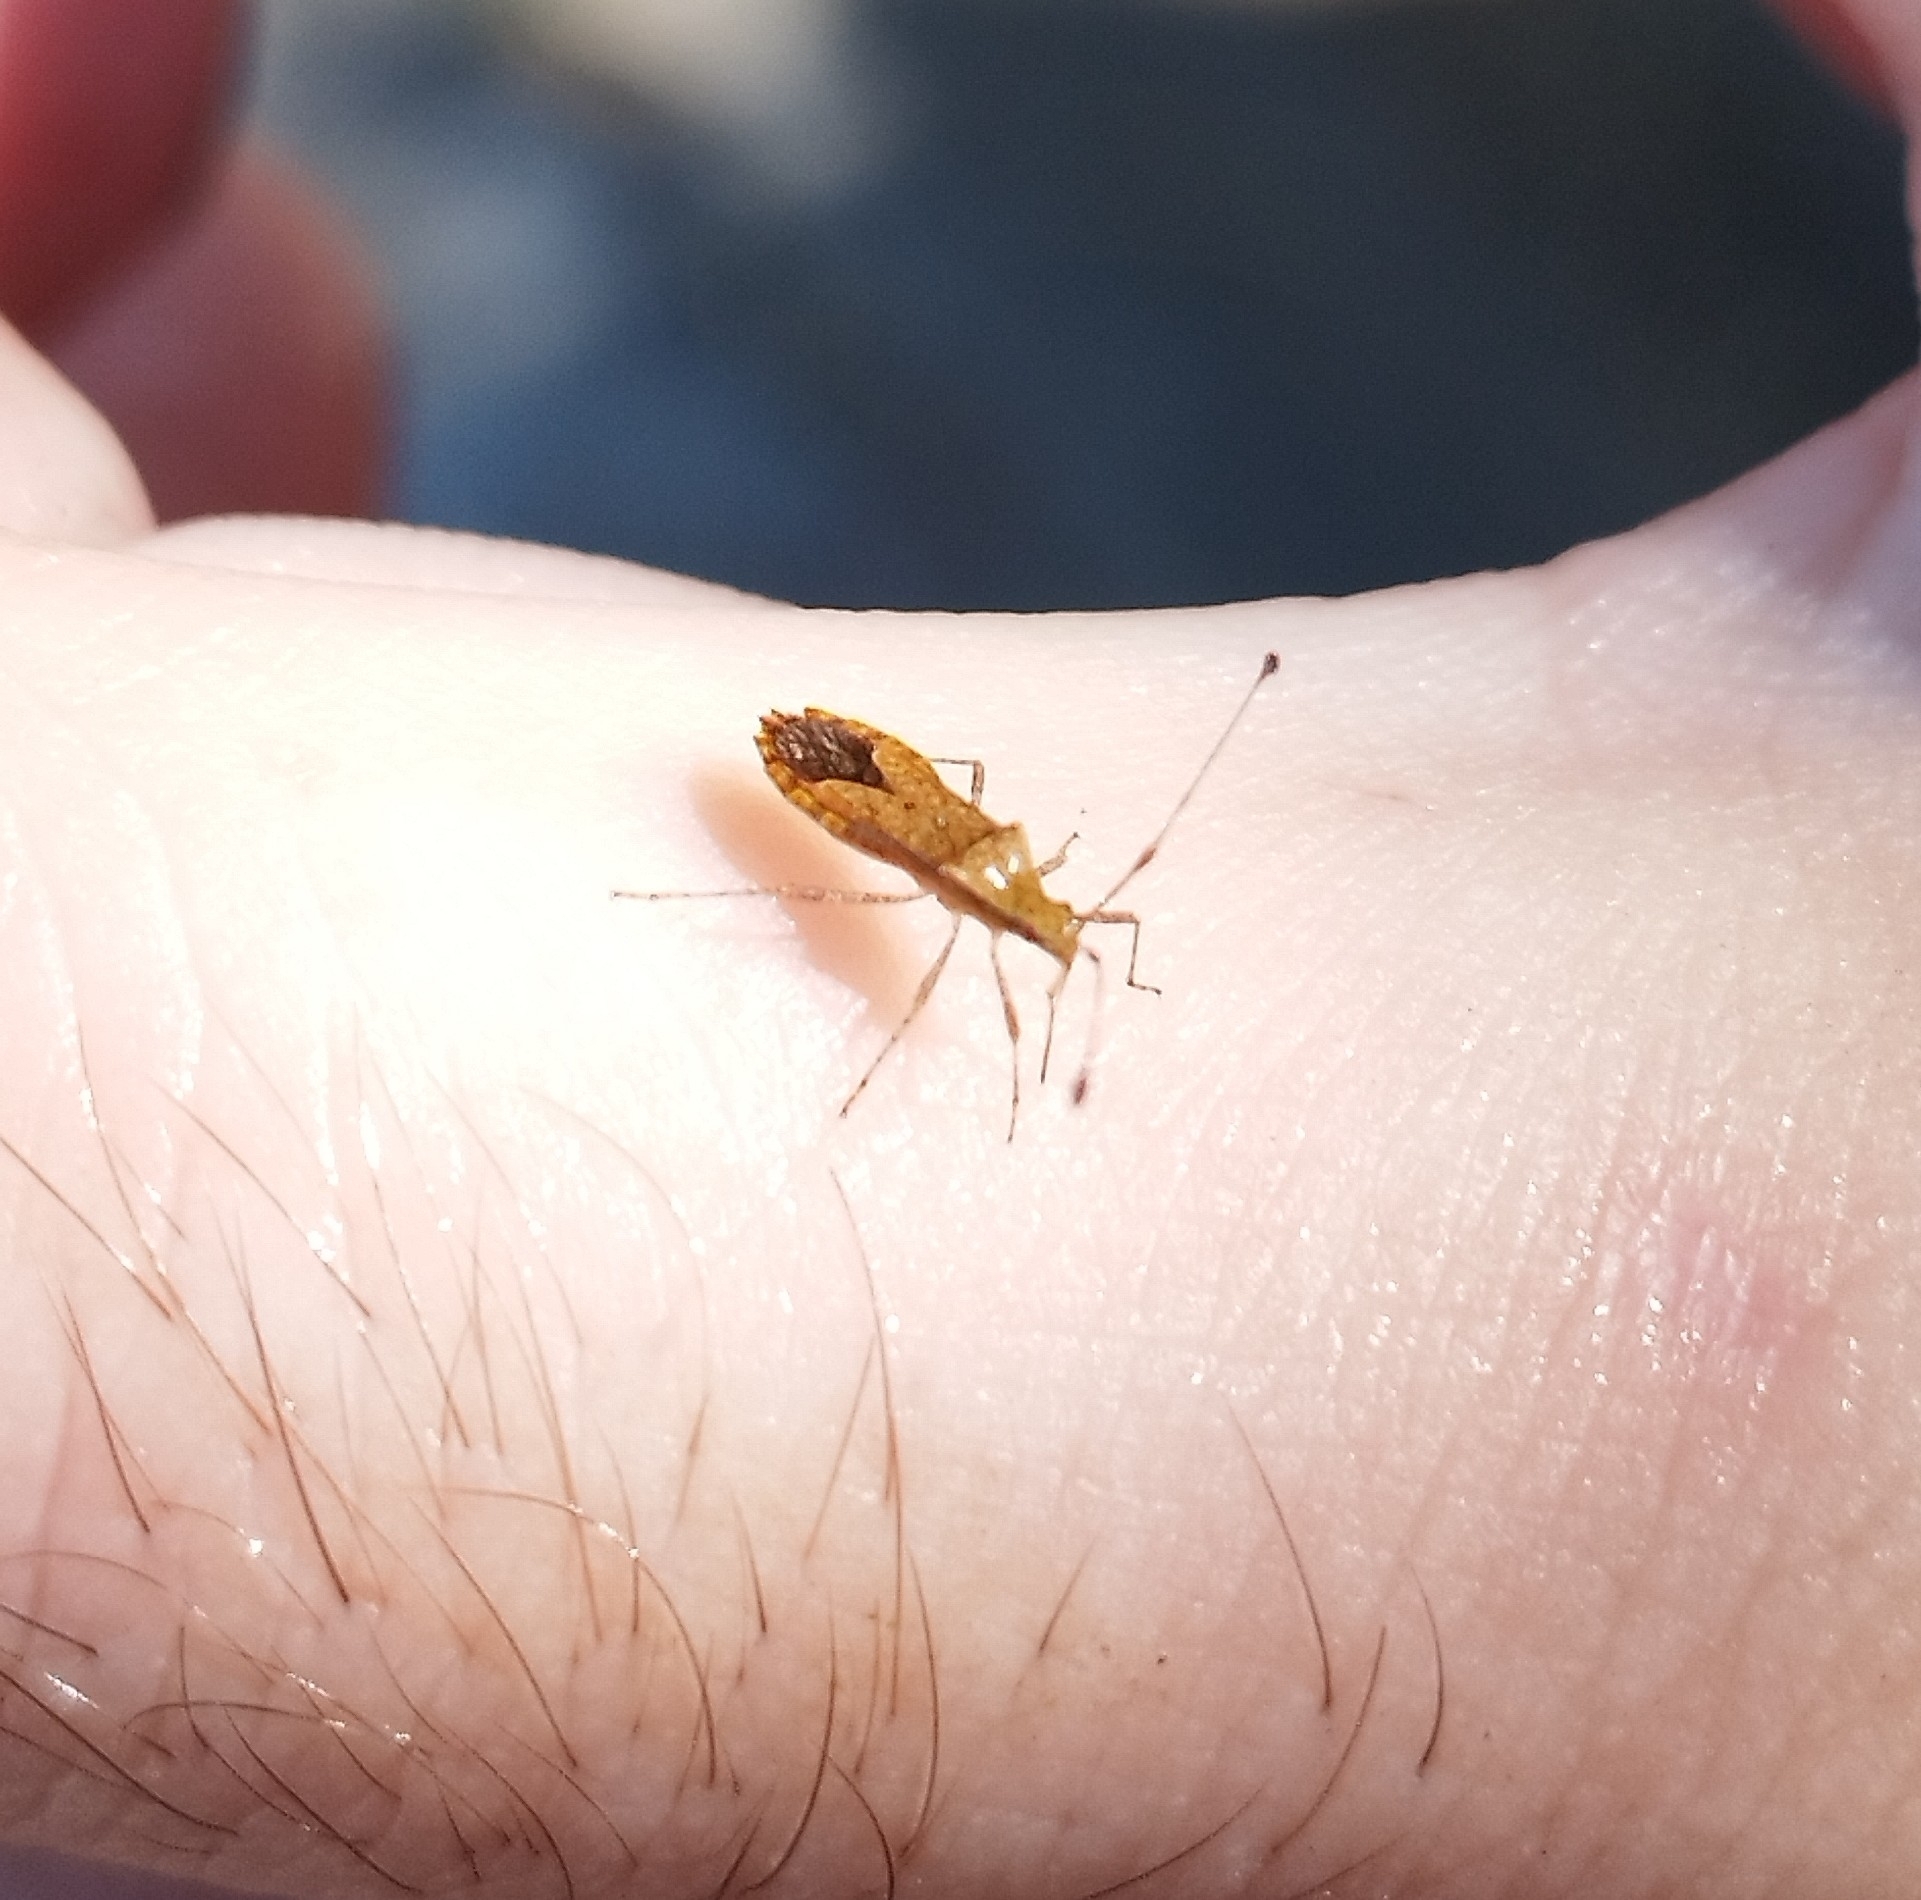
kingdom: Animalia
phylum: Arthropoda
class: Insecta
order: Hemiptera
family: Coreidae
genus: Madura
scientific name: Madura fusco-clavata
